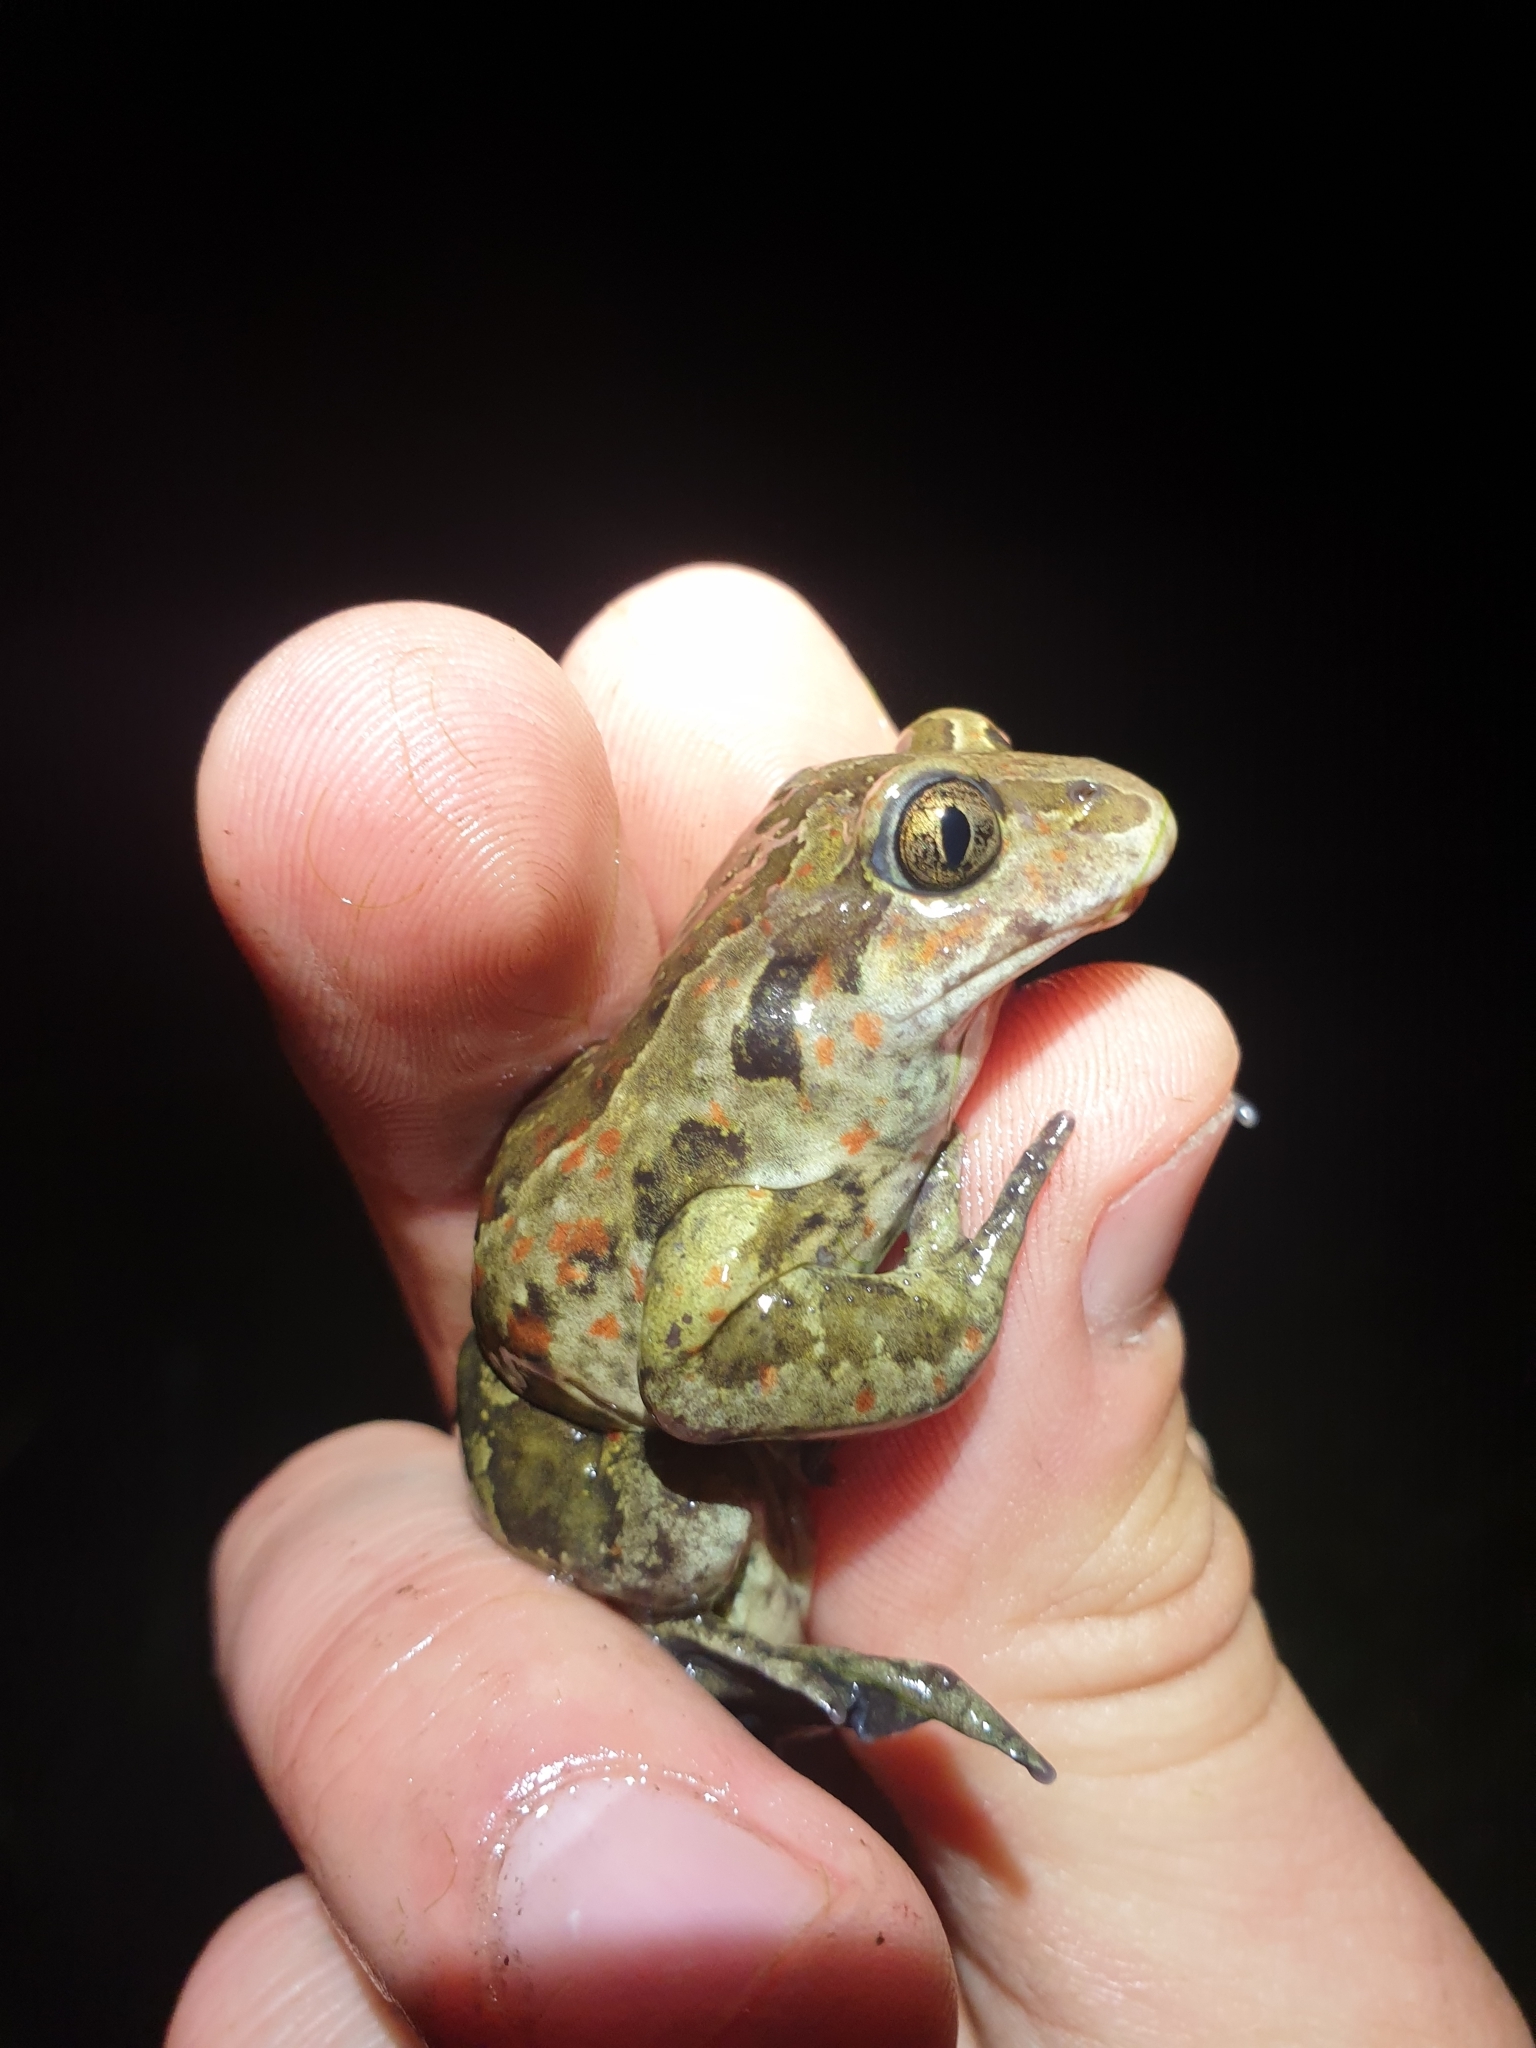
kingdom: Animalia
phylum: Chordata
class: Amphibia
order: Anura
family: Pelobatidae
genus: Pelobates
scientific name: Pelobates fuscus
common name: Common eurasian spadefoot toad
